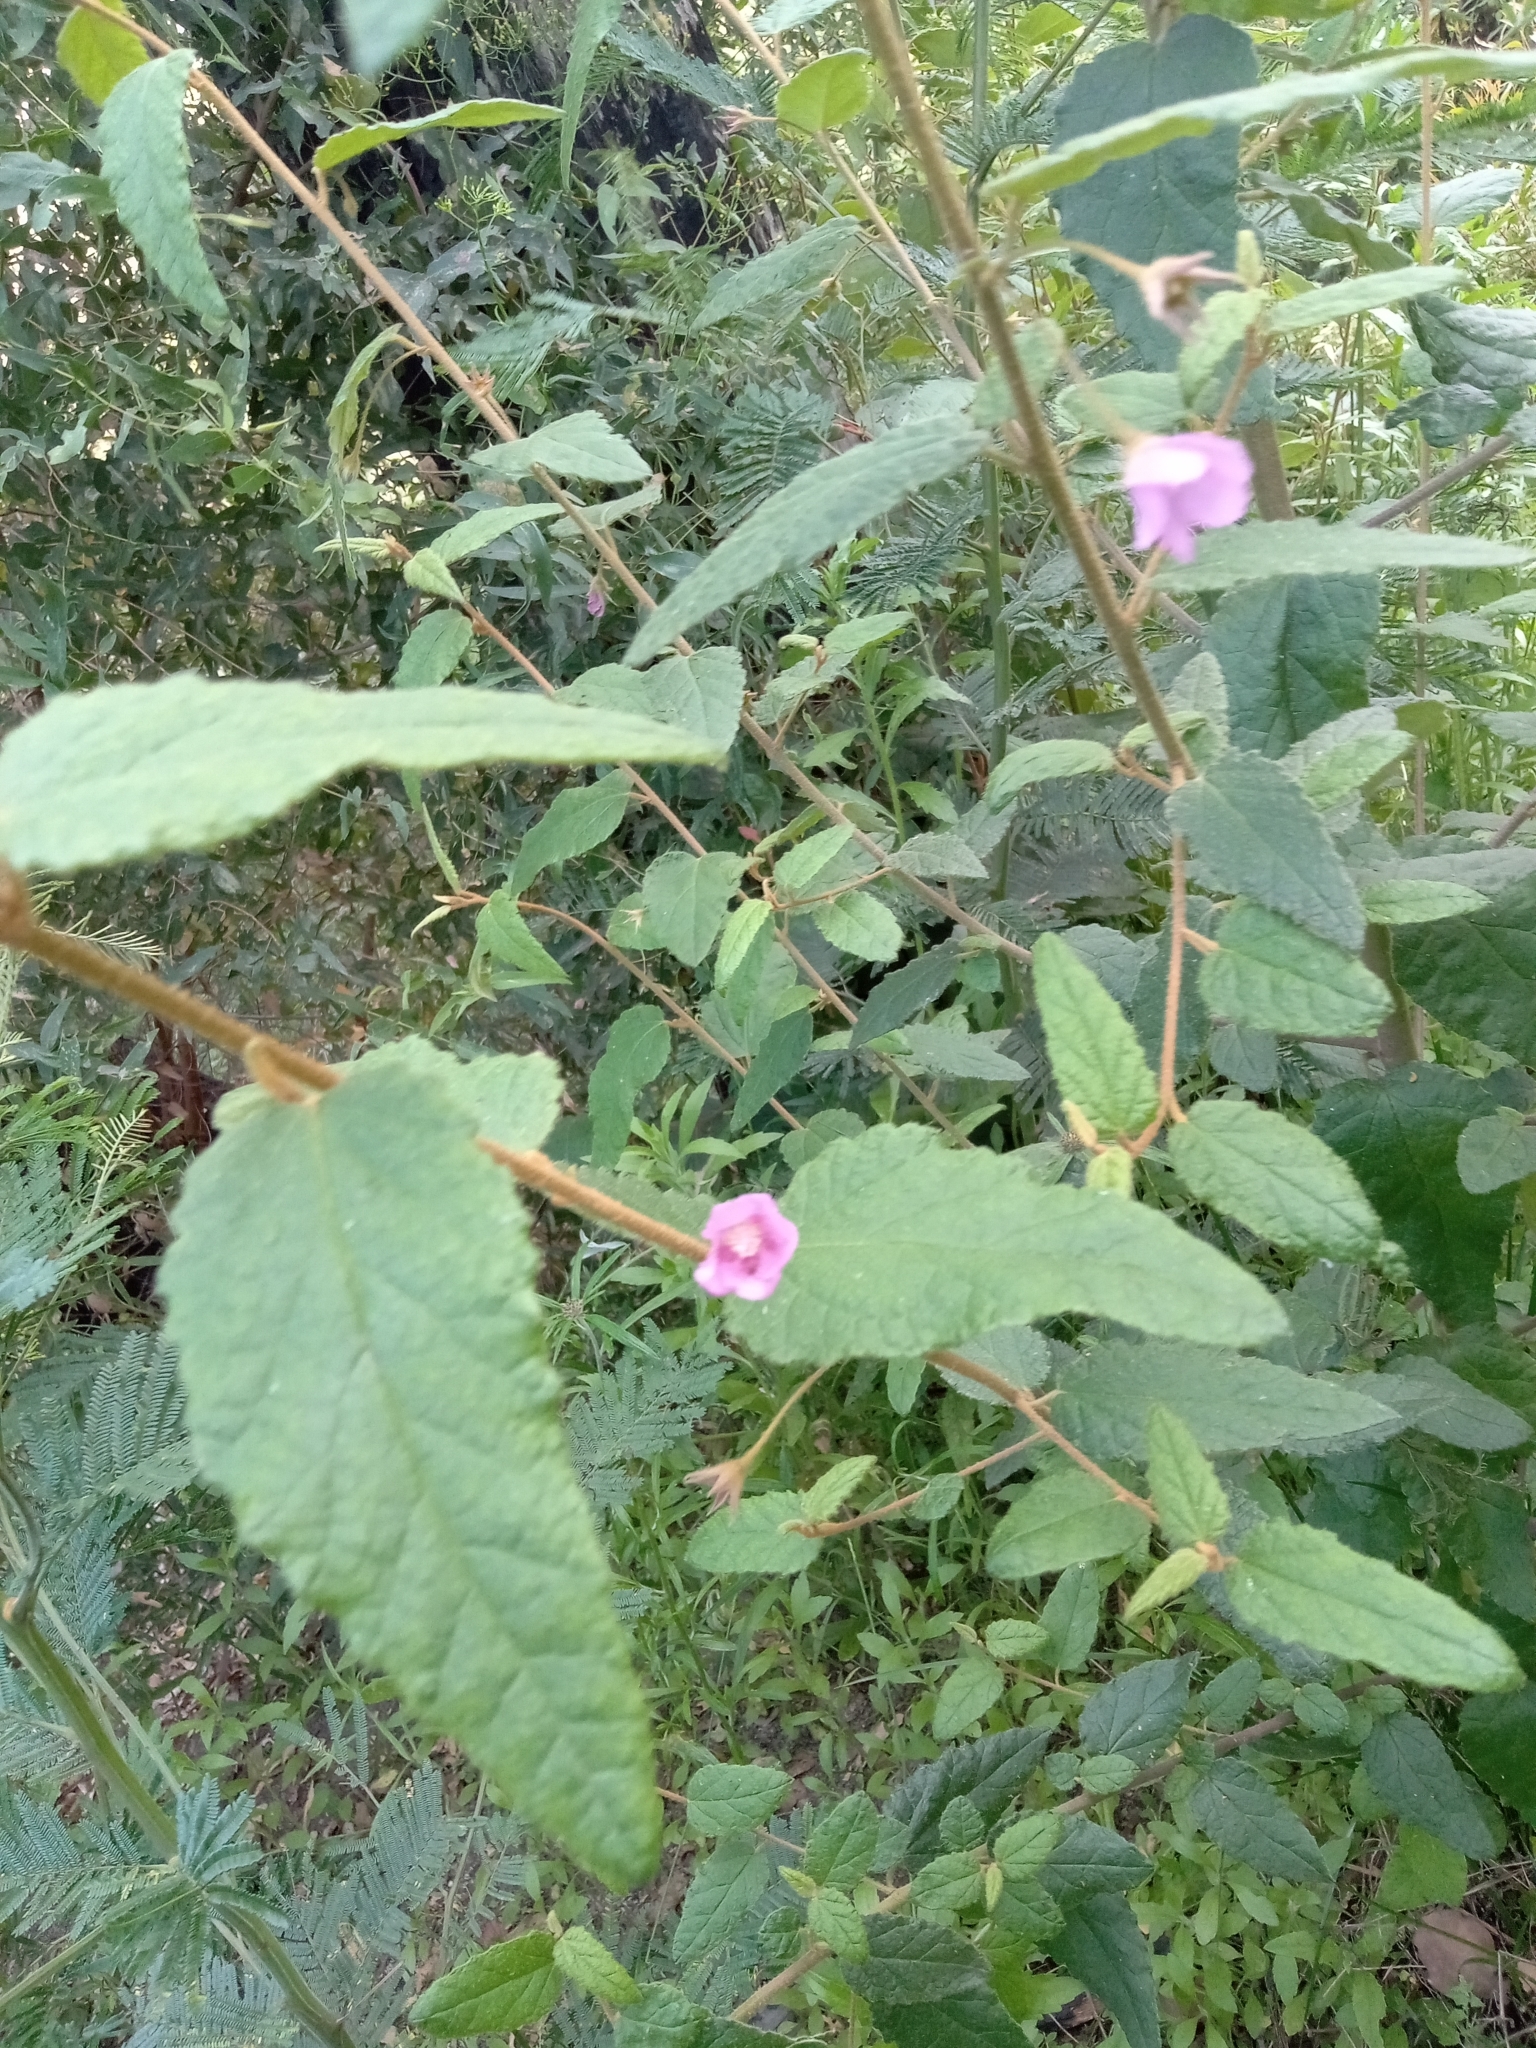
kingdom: Plantae
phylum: Tracheophyta
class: Magnoliopsida
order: Malvales
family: Malvaceae
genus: Howittia
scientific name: Howittia trilocularis
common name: Blue howittia
